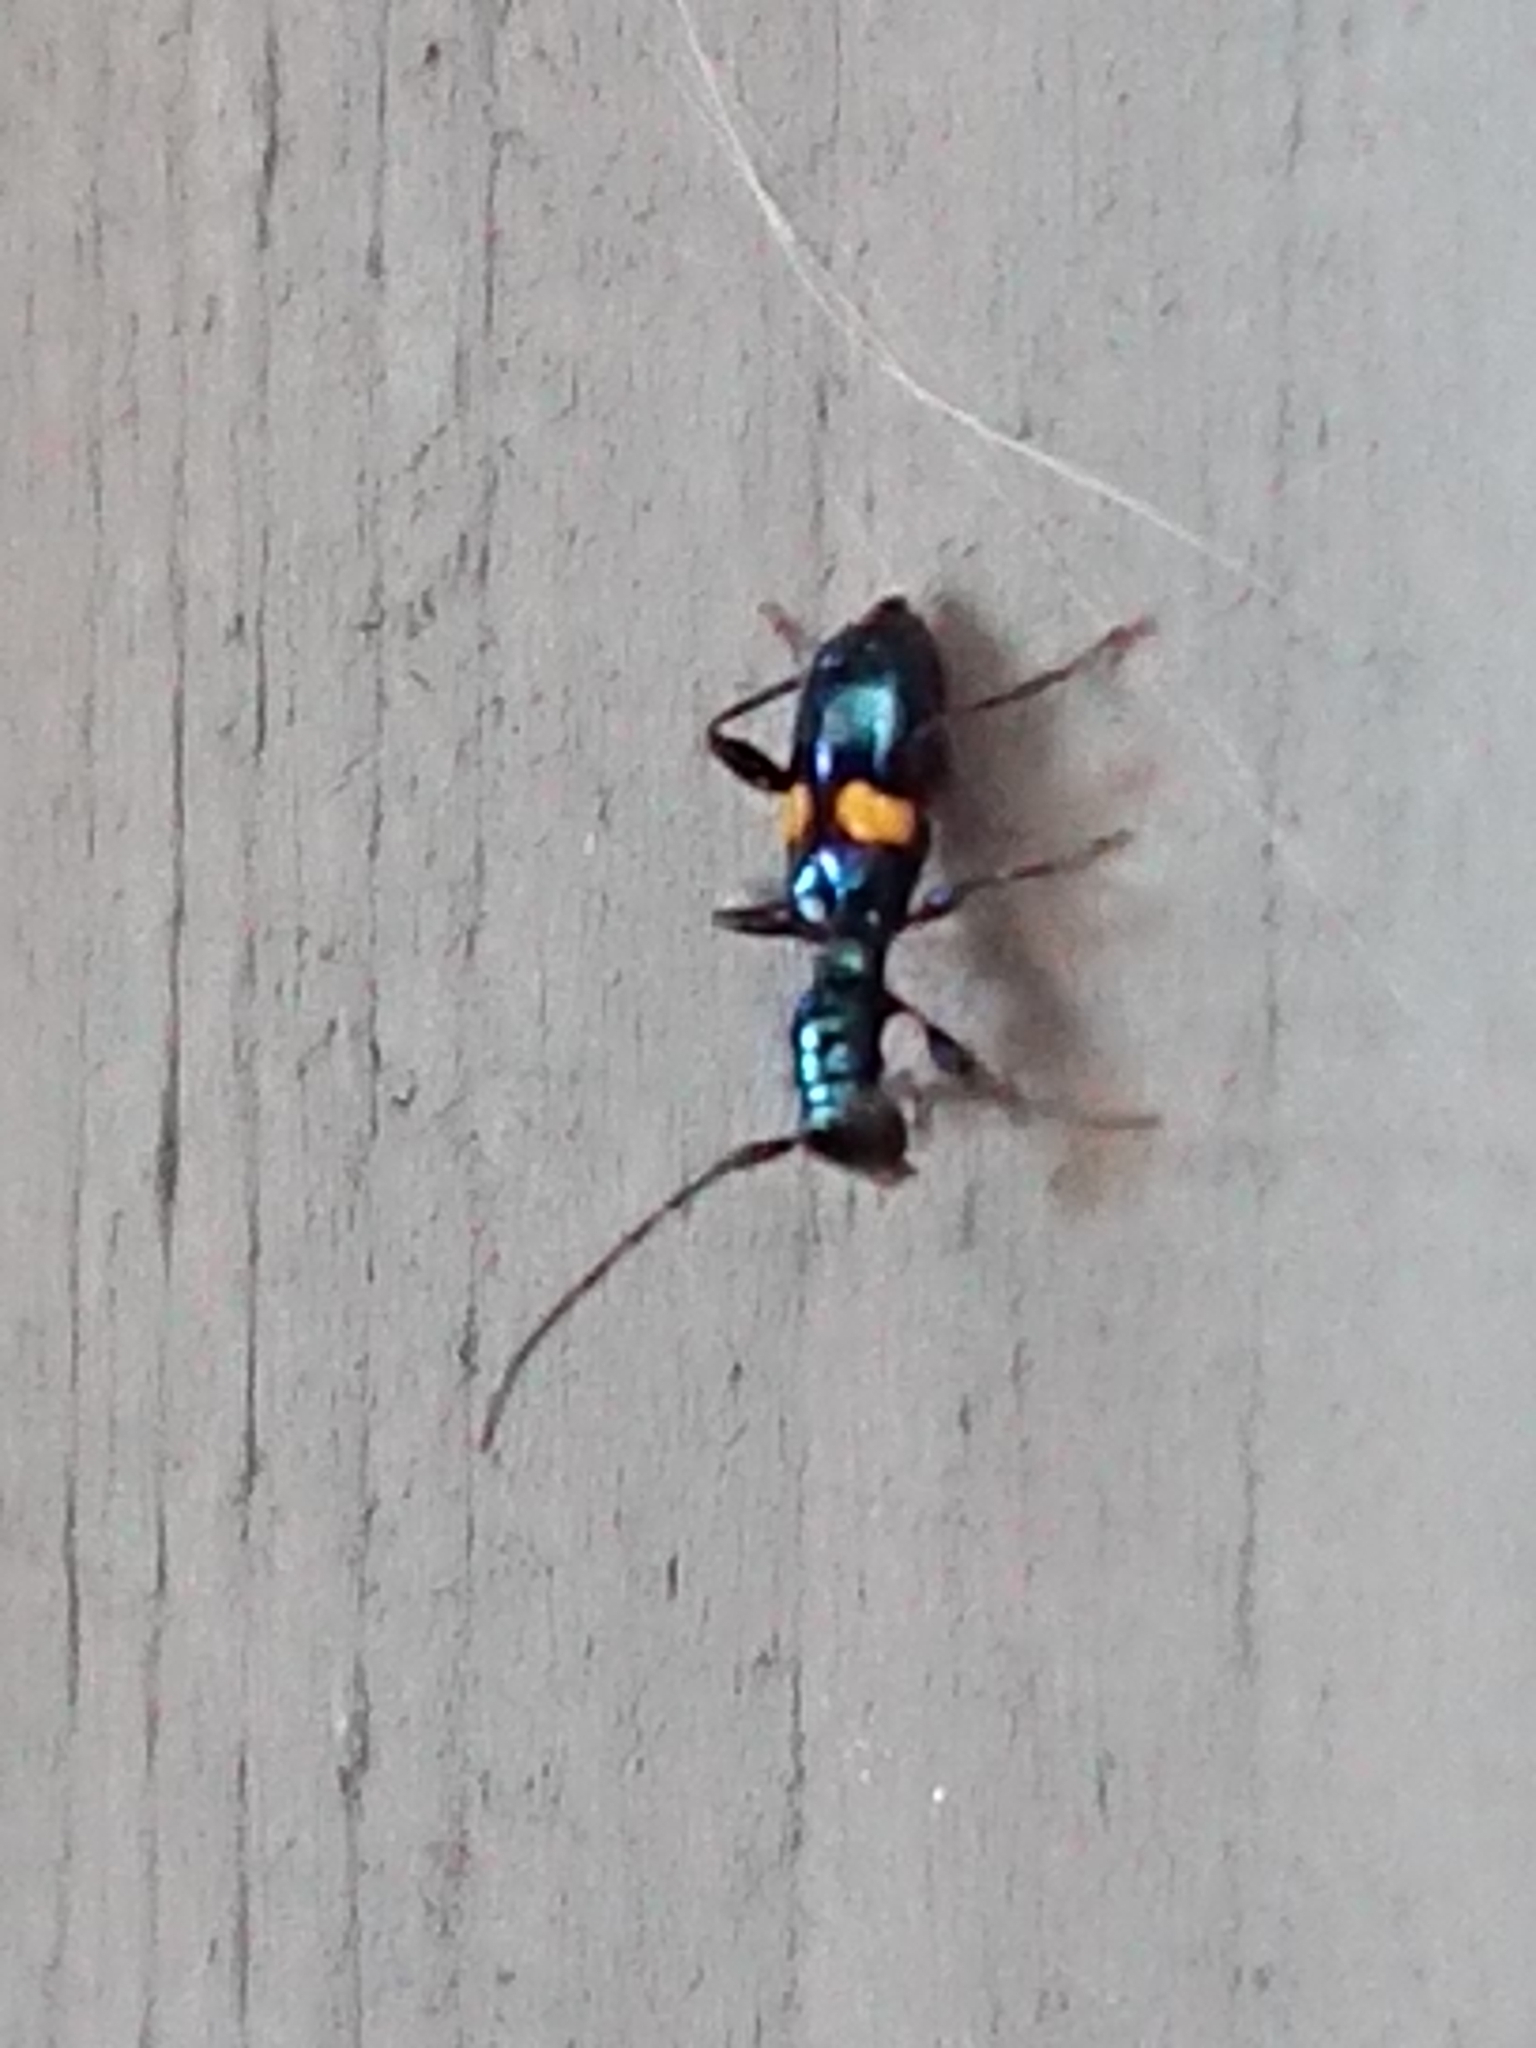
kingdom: Animalia
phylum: Arthropoda
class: Insecta
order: Coleoptera
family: Cerambycidae
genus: Zorion
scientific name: Zorion guttigerum
